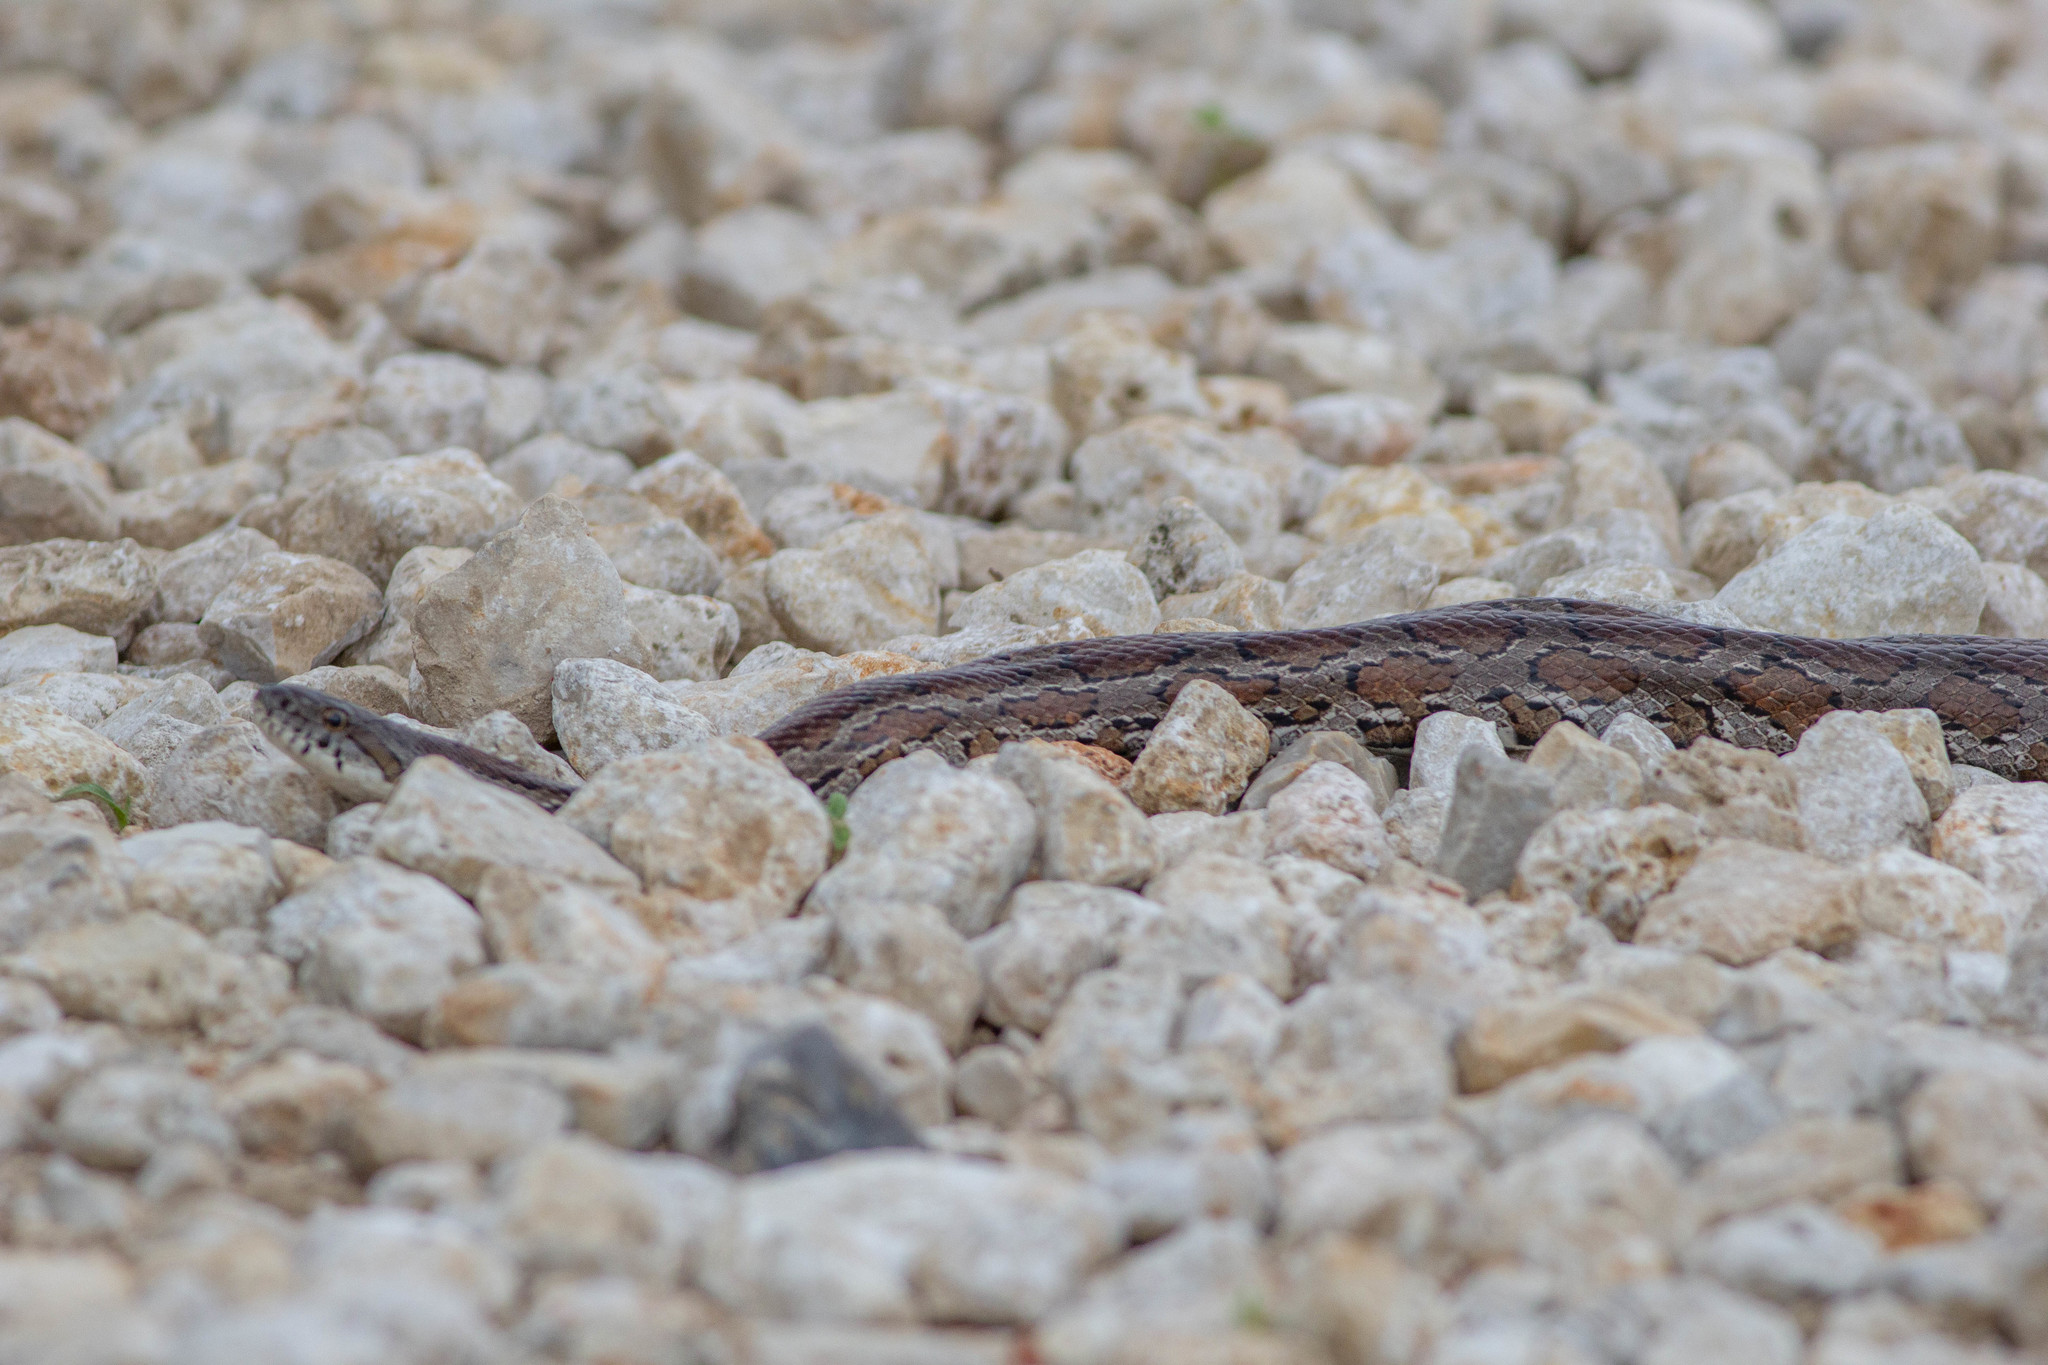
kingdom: Animalia
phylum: Chordata
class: Squamata
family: Colubridae
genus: Pantherophis
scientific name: Pantherophis emoryi
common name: Great plains rat snake
